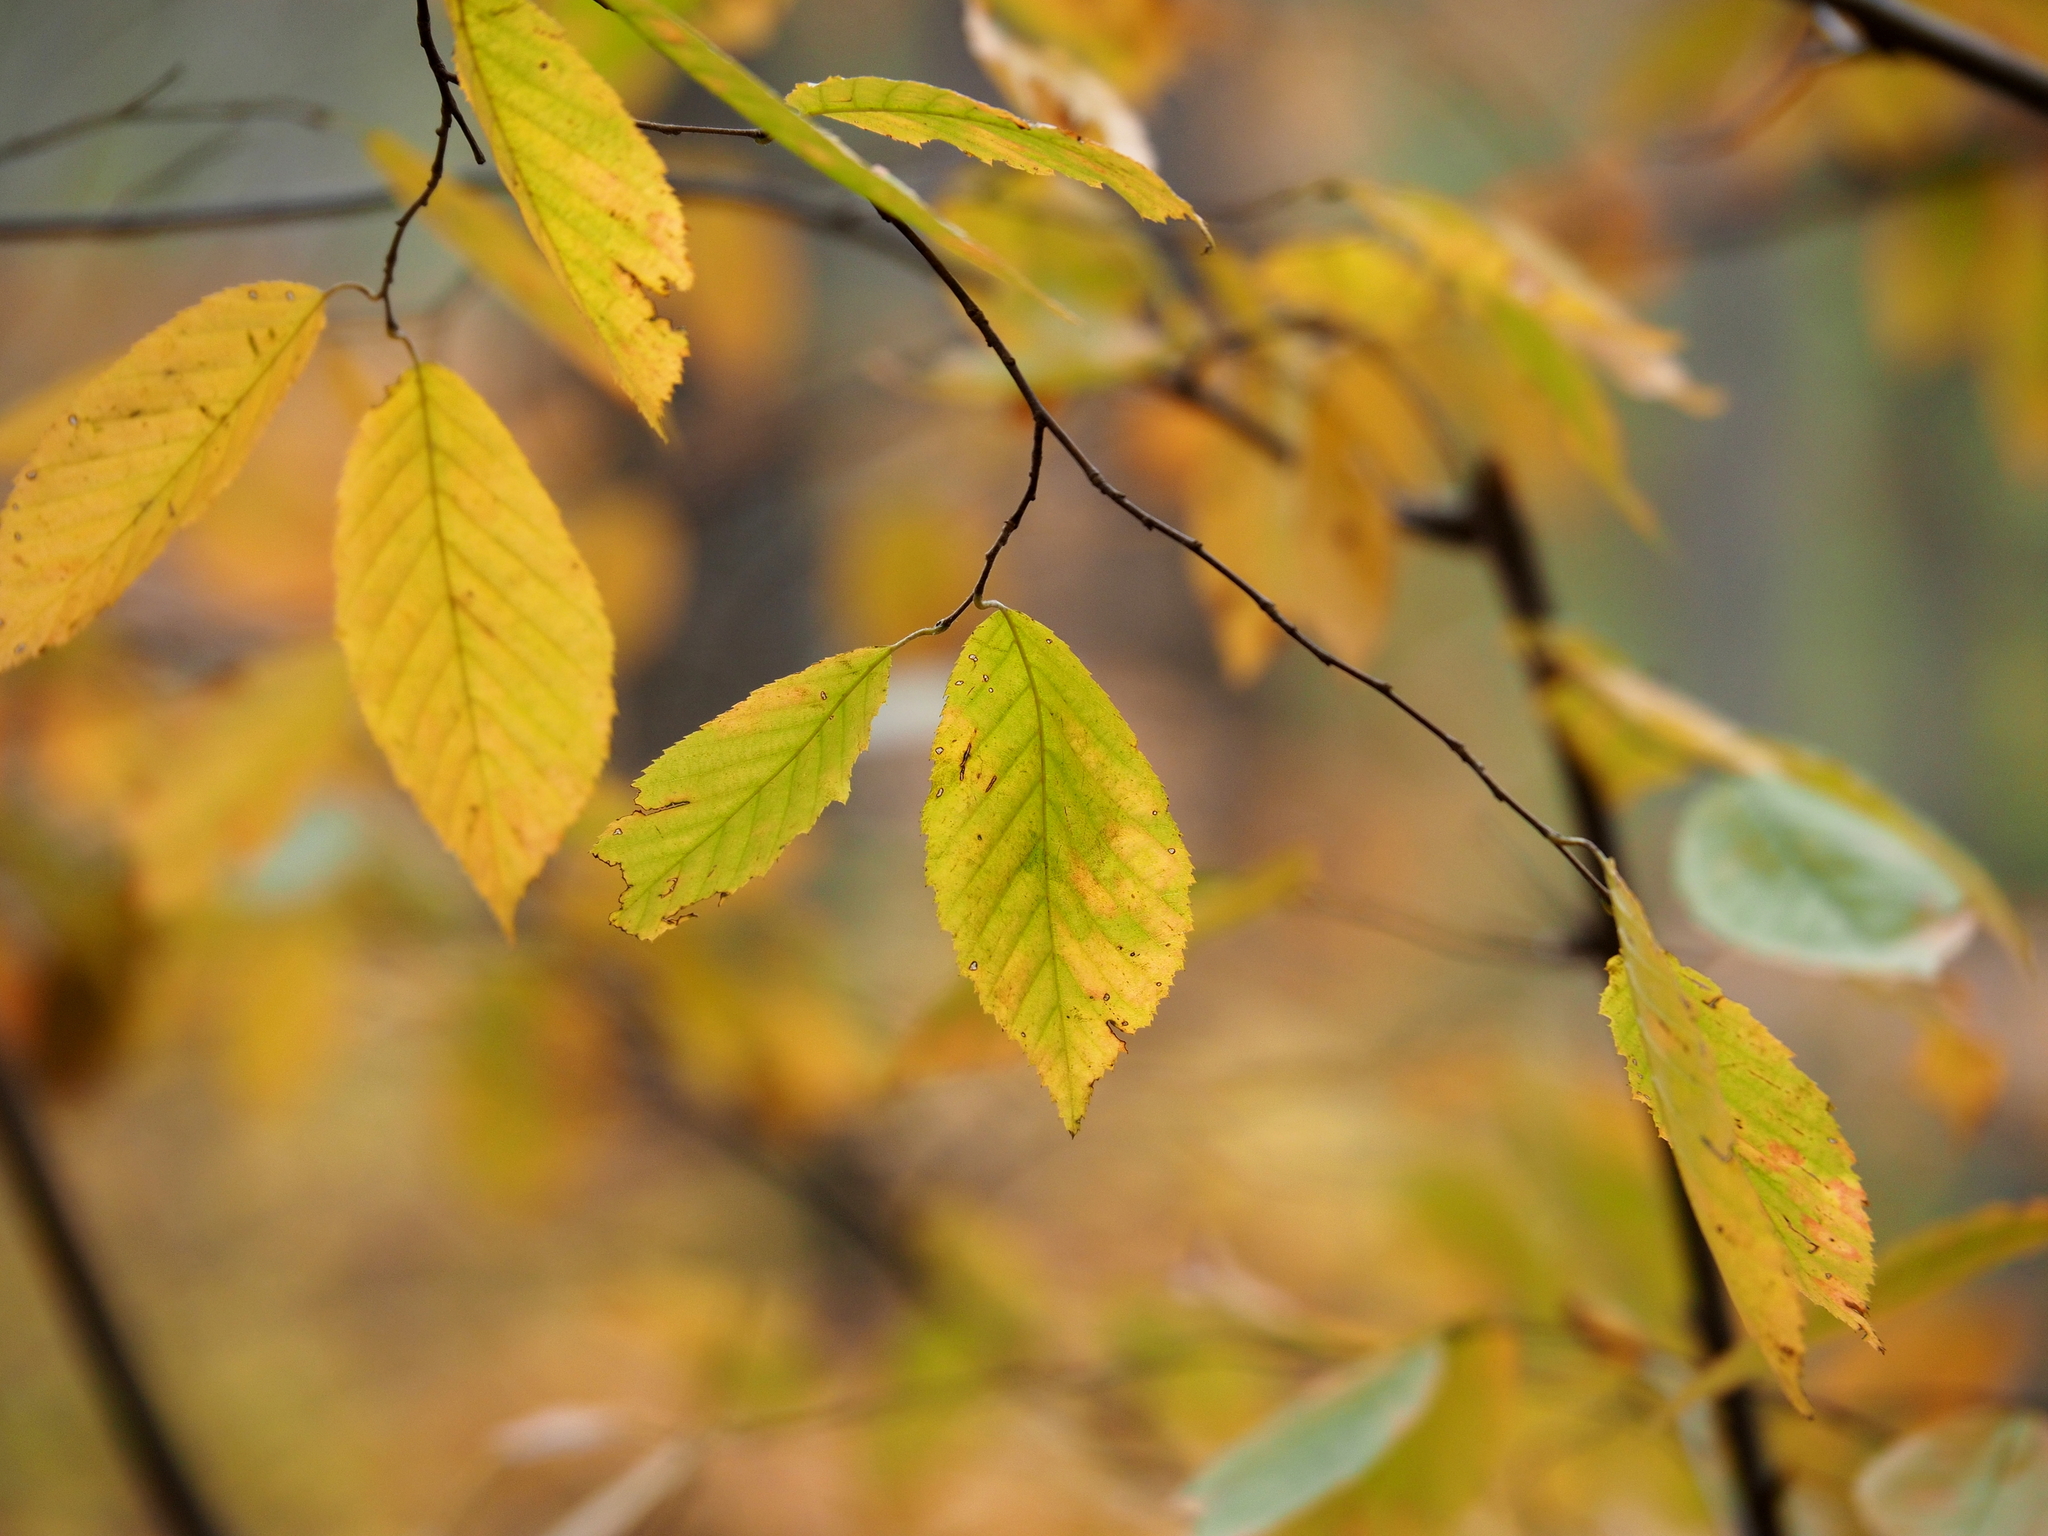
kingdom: Plantae
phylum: Tracheophyta
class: Magnoliopsida
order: Fagales
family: Betulaceae
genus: Carpinus
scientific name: Carpinus caroliniana
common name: American hornbeam
